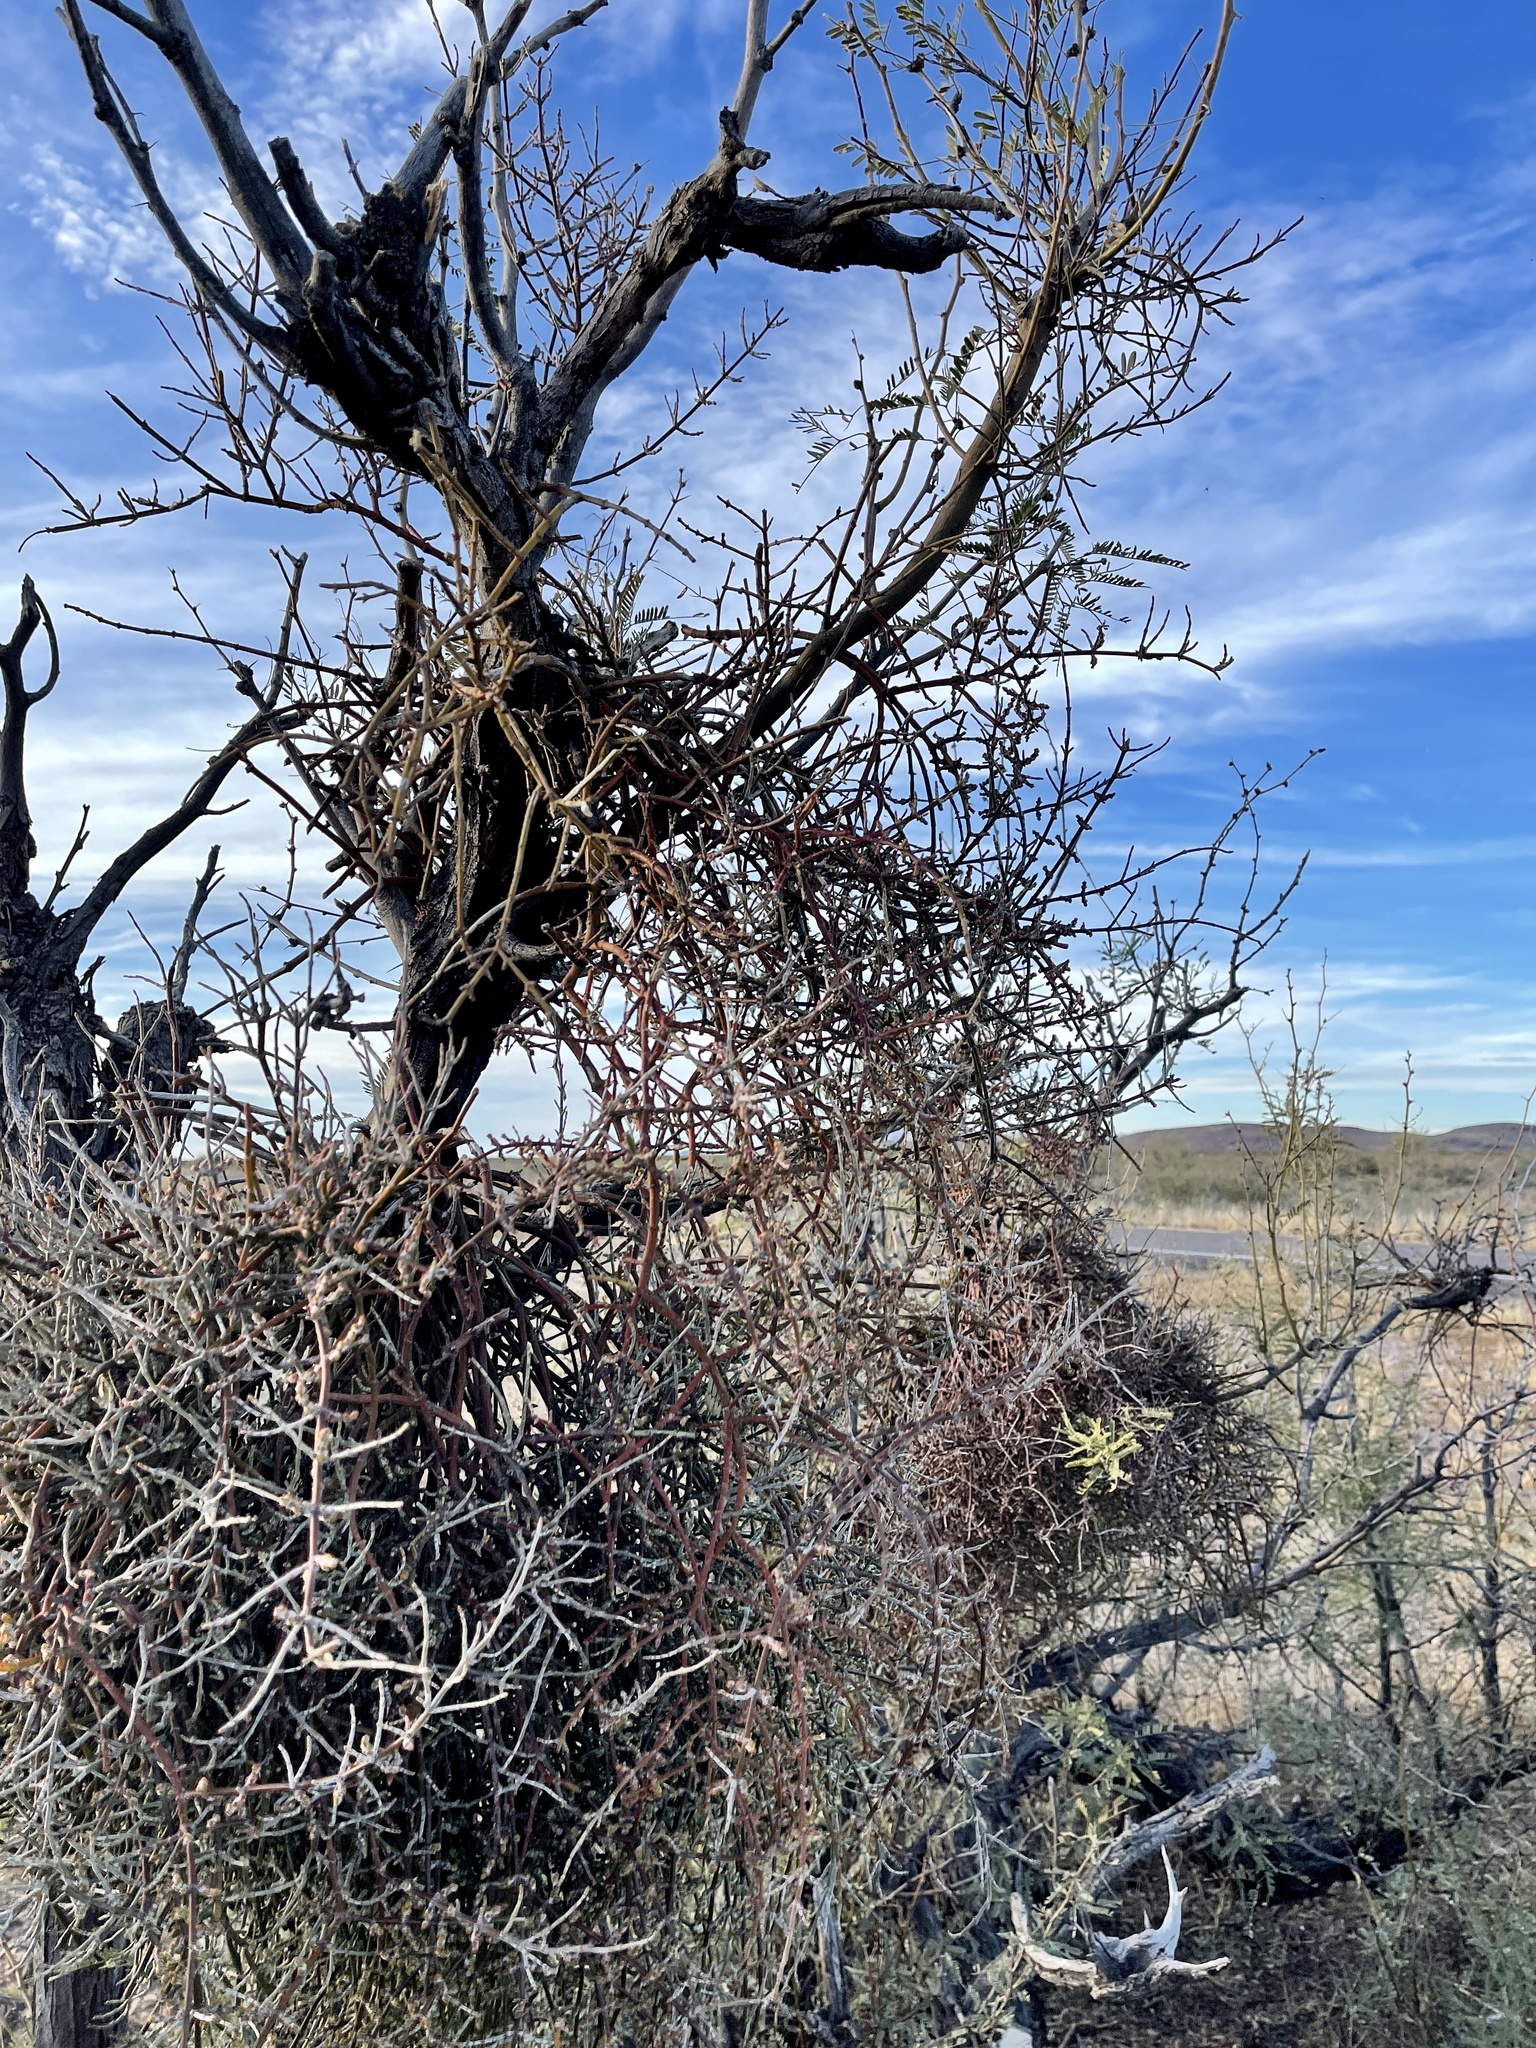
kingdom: Plantae
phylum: Tracheophyta
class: Magnoliopsida
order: Santalales
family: Viscaceae
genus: Phoradendron
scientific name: Phoradendron californicum
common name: Acacia mistletoe
